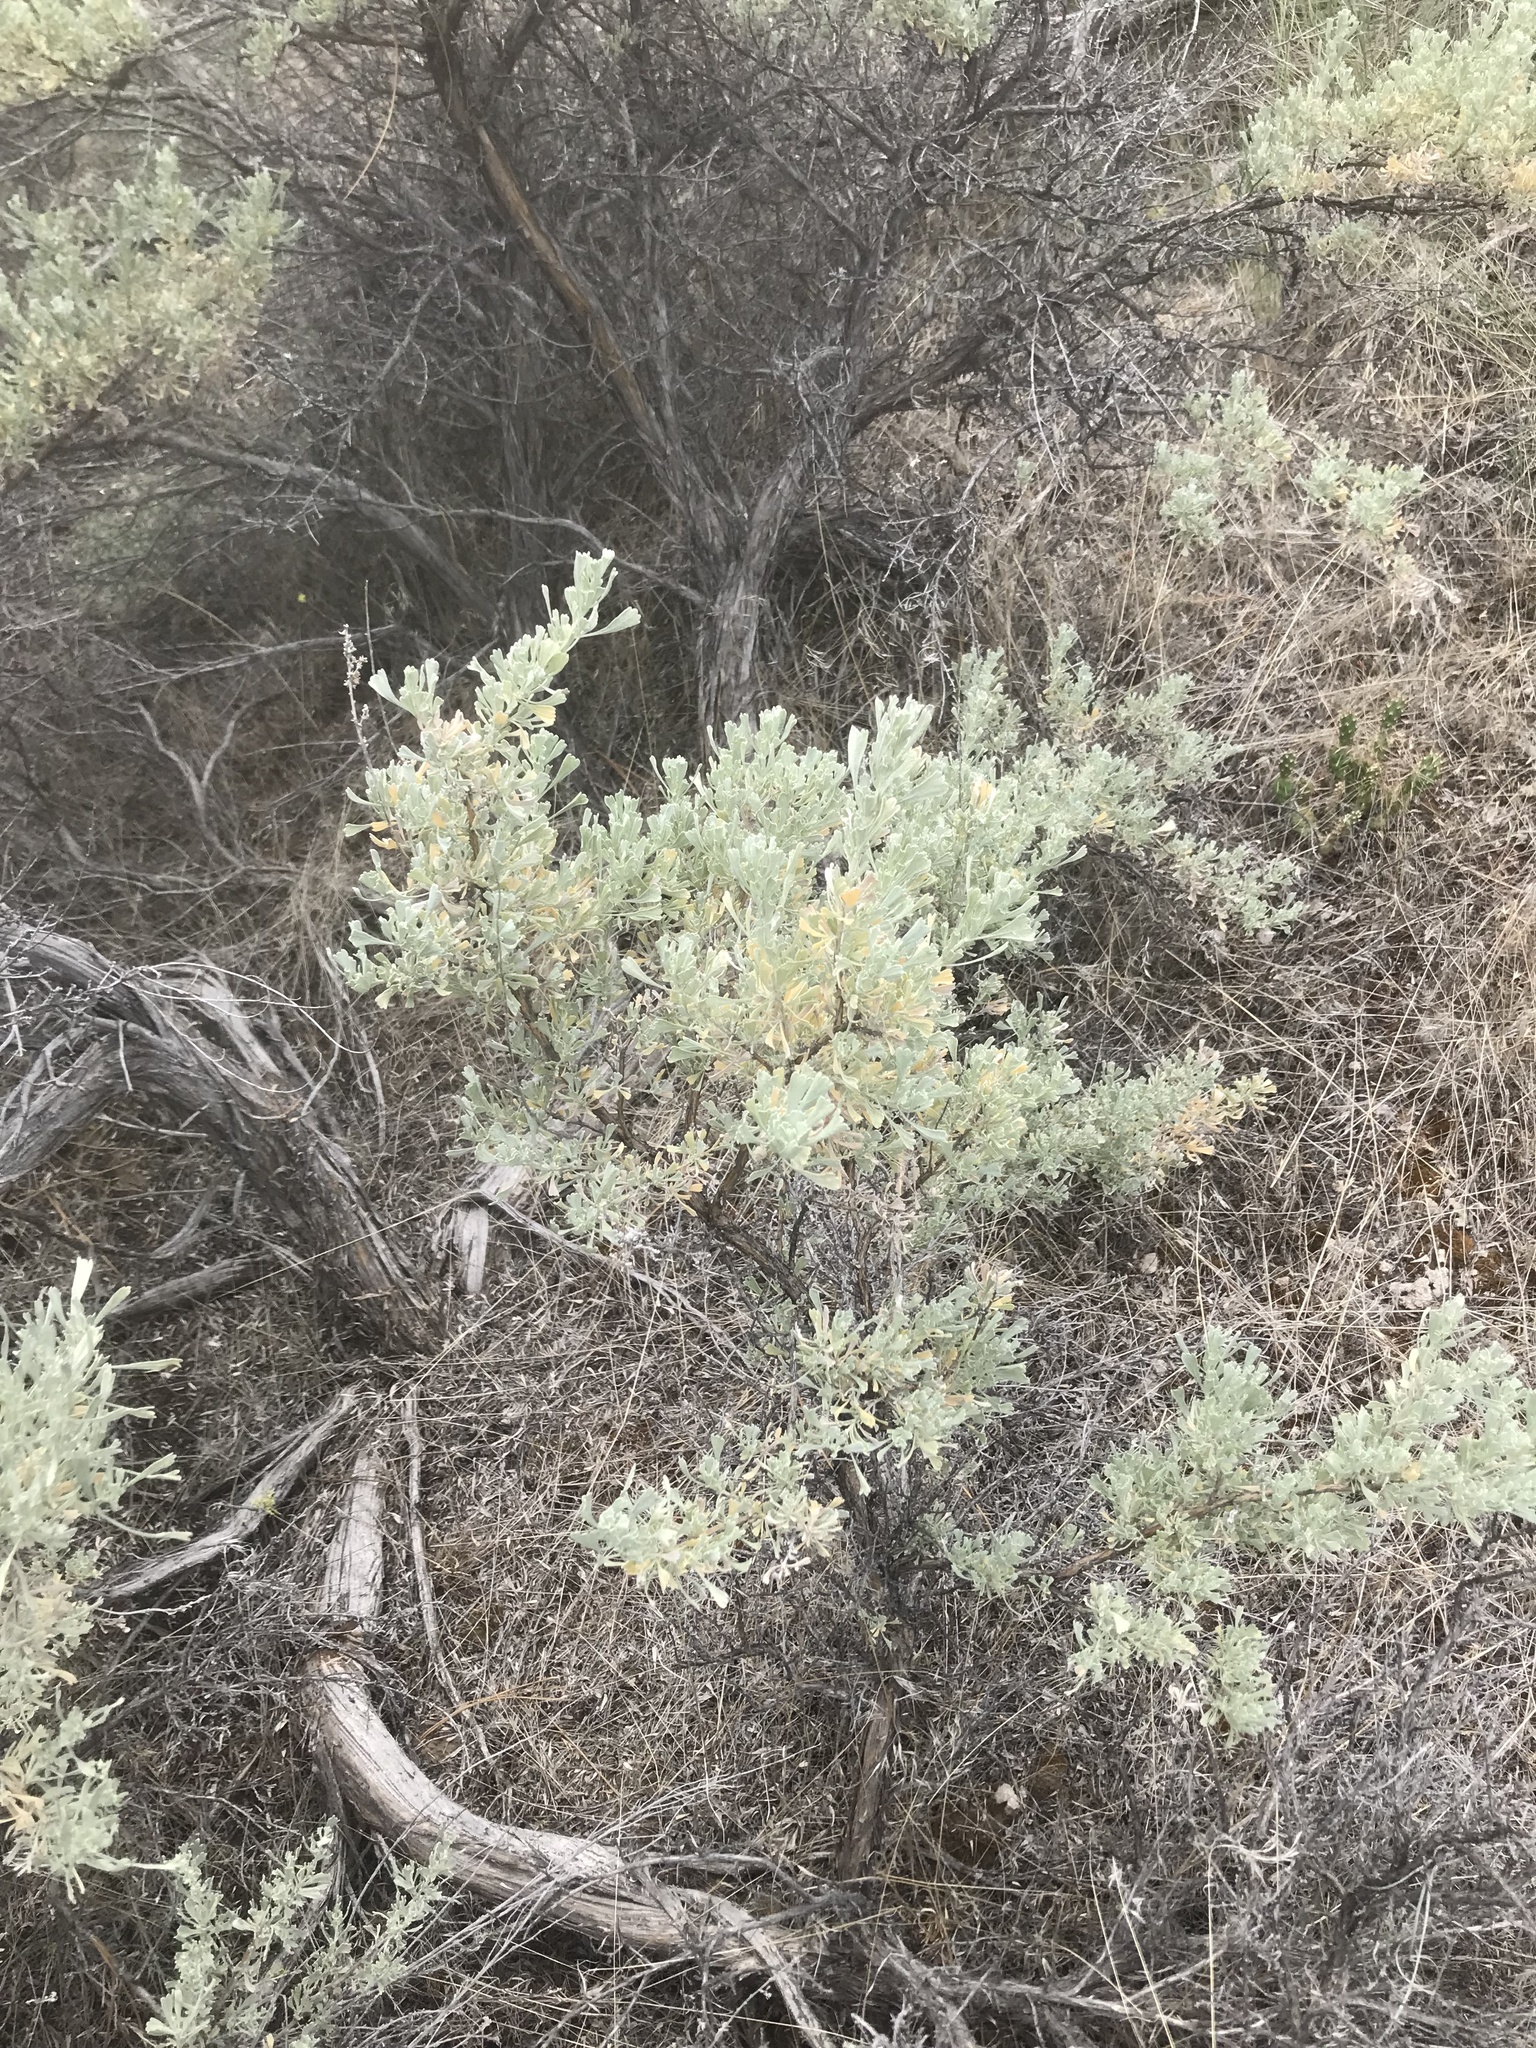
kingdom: Plantae
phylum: Tracheophyta
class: Magnoliopsida
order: Asterales
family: Asteraceae
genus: Artemisia
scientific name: Artemisia tridentata
